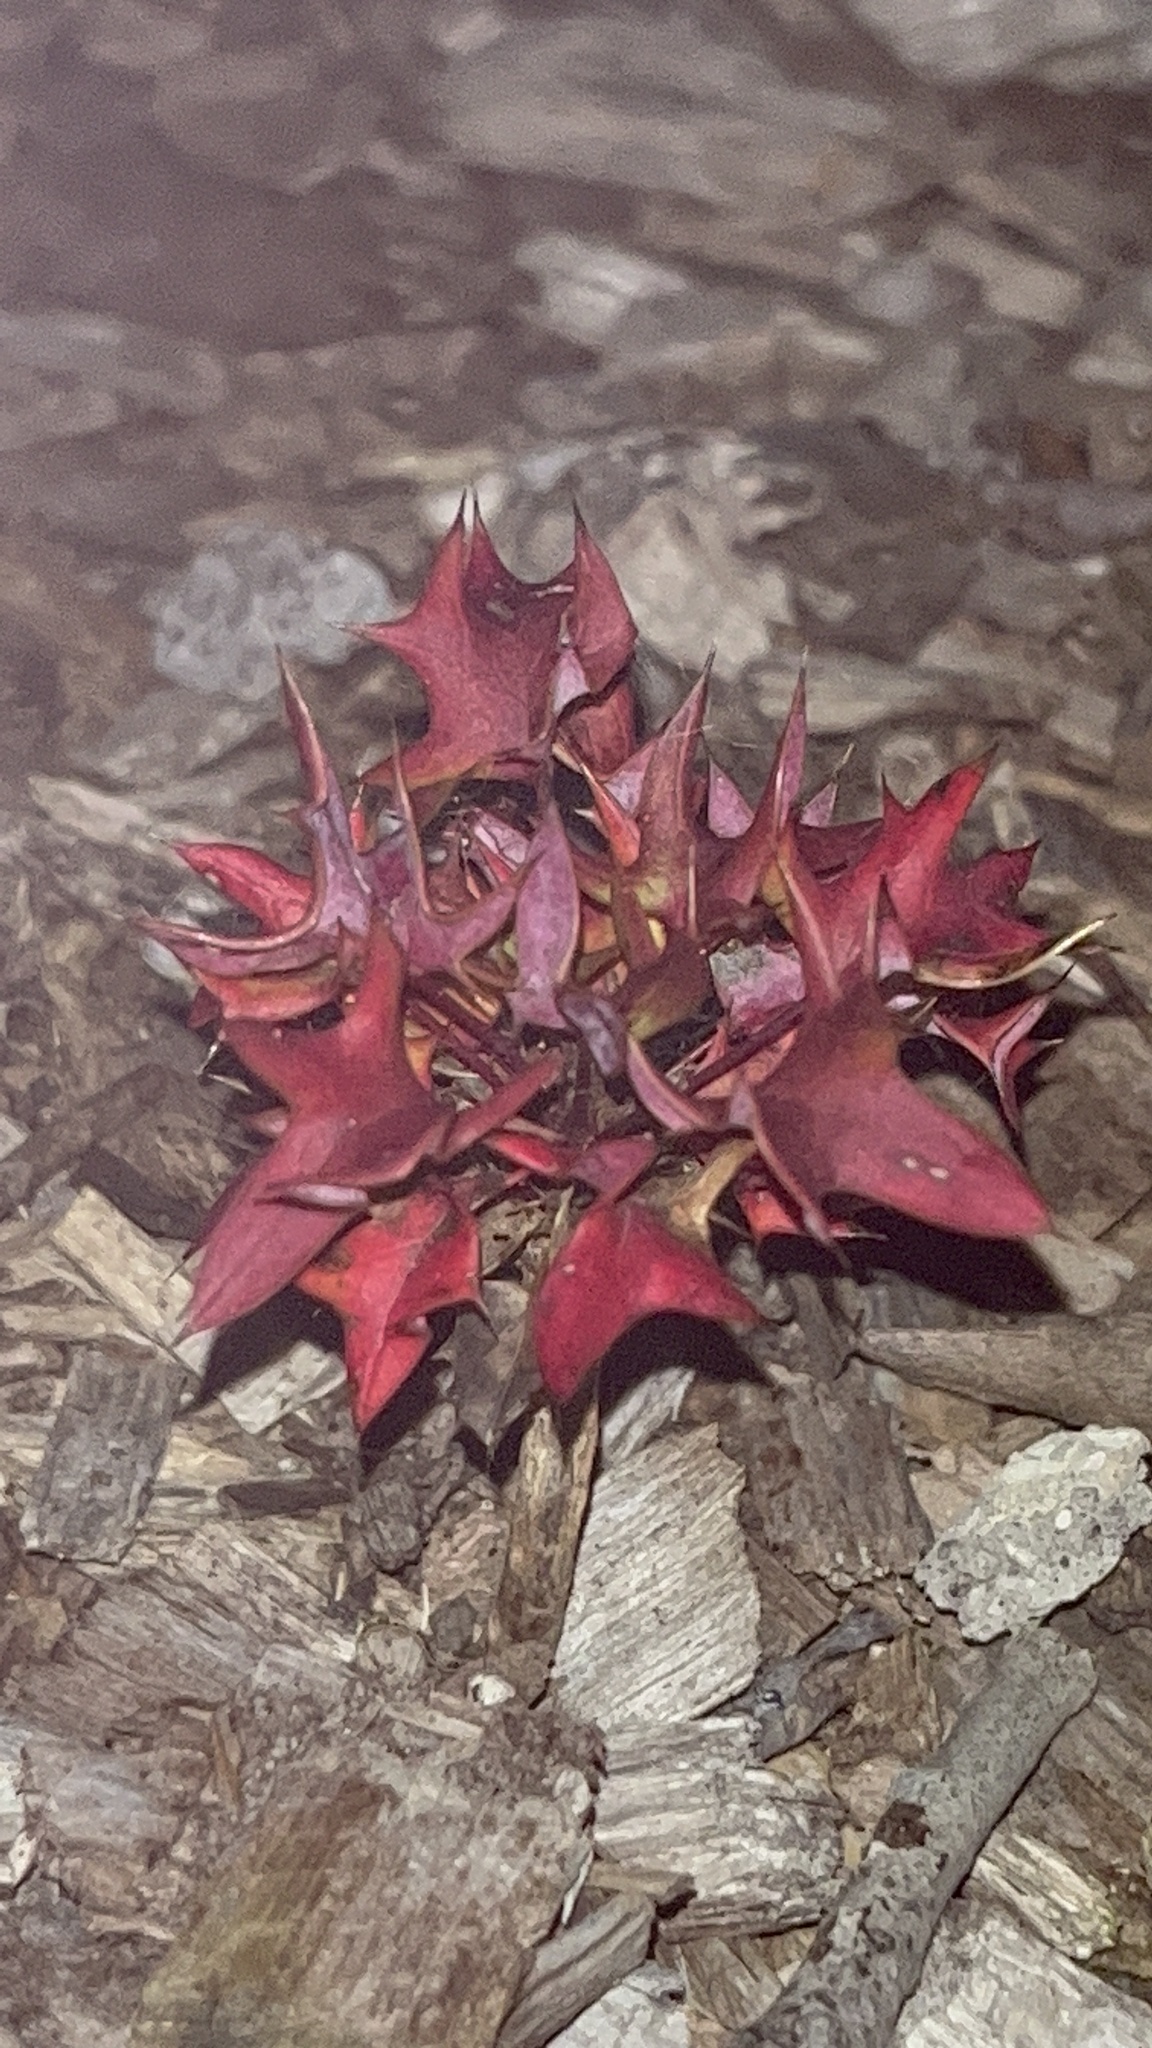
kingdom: Plantae
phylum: Tracheophyta
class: Magnoliopsida
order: Dipsacales
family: Caprifoliaceae
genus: Leycesteria
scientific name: Leycesteria formosa
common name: Himalayan honeysuckle
